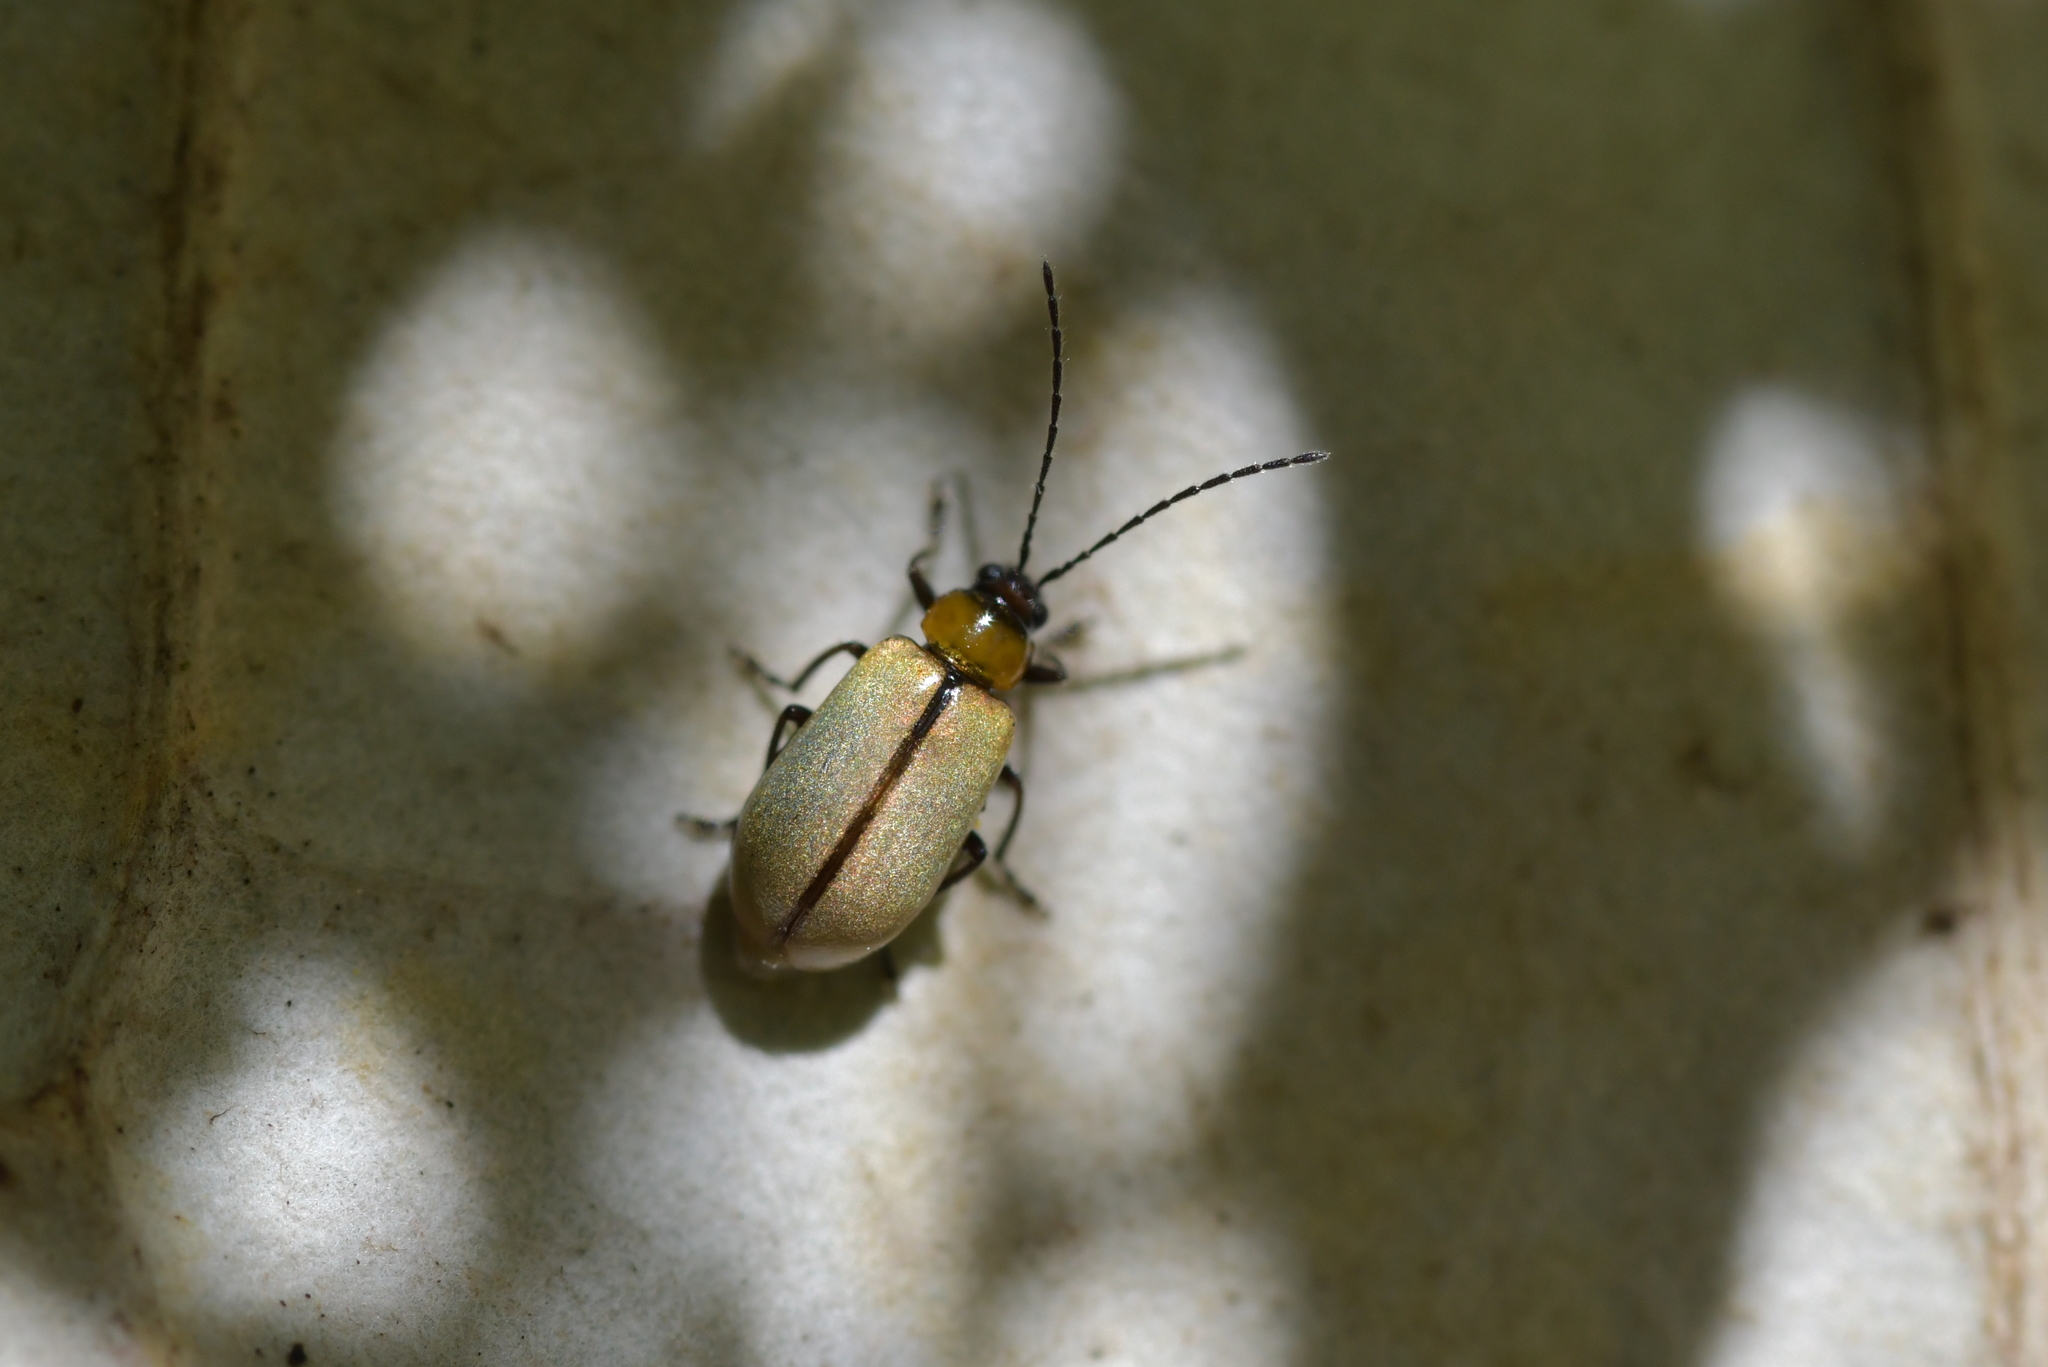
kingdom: Animalia
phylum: Arthropoda
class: Insecta
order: Coleoptera
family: Chrysomelidae
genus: Adoxia
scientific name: Adoxia
